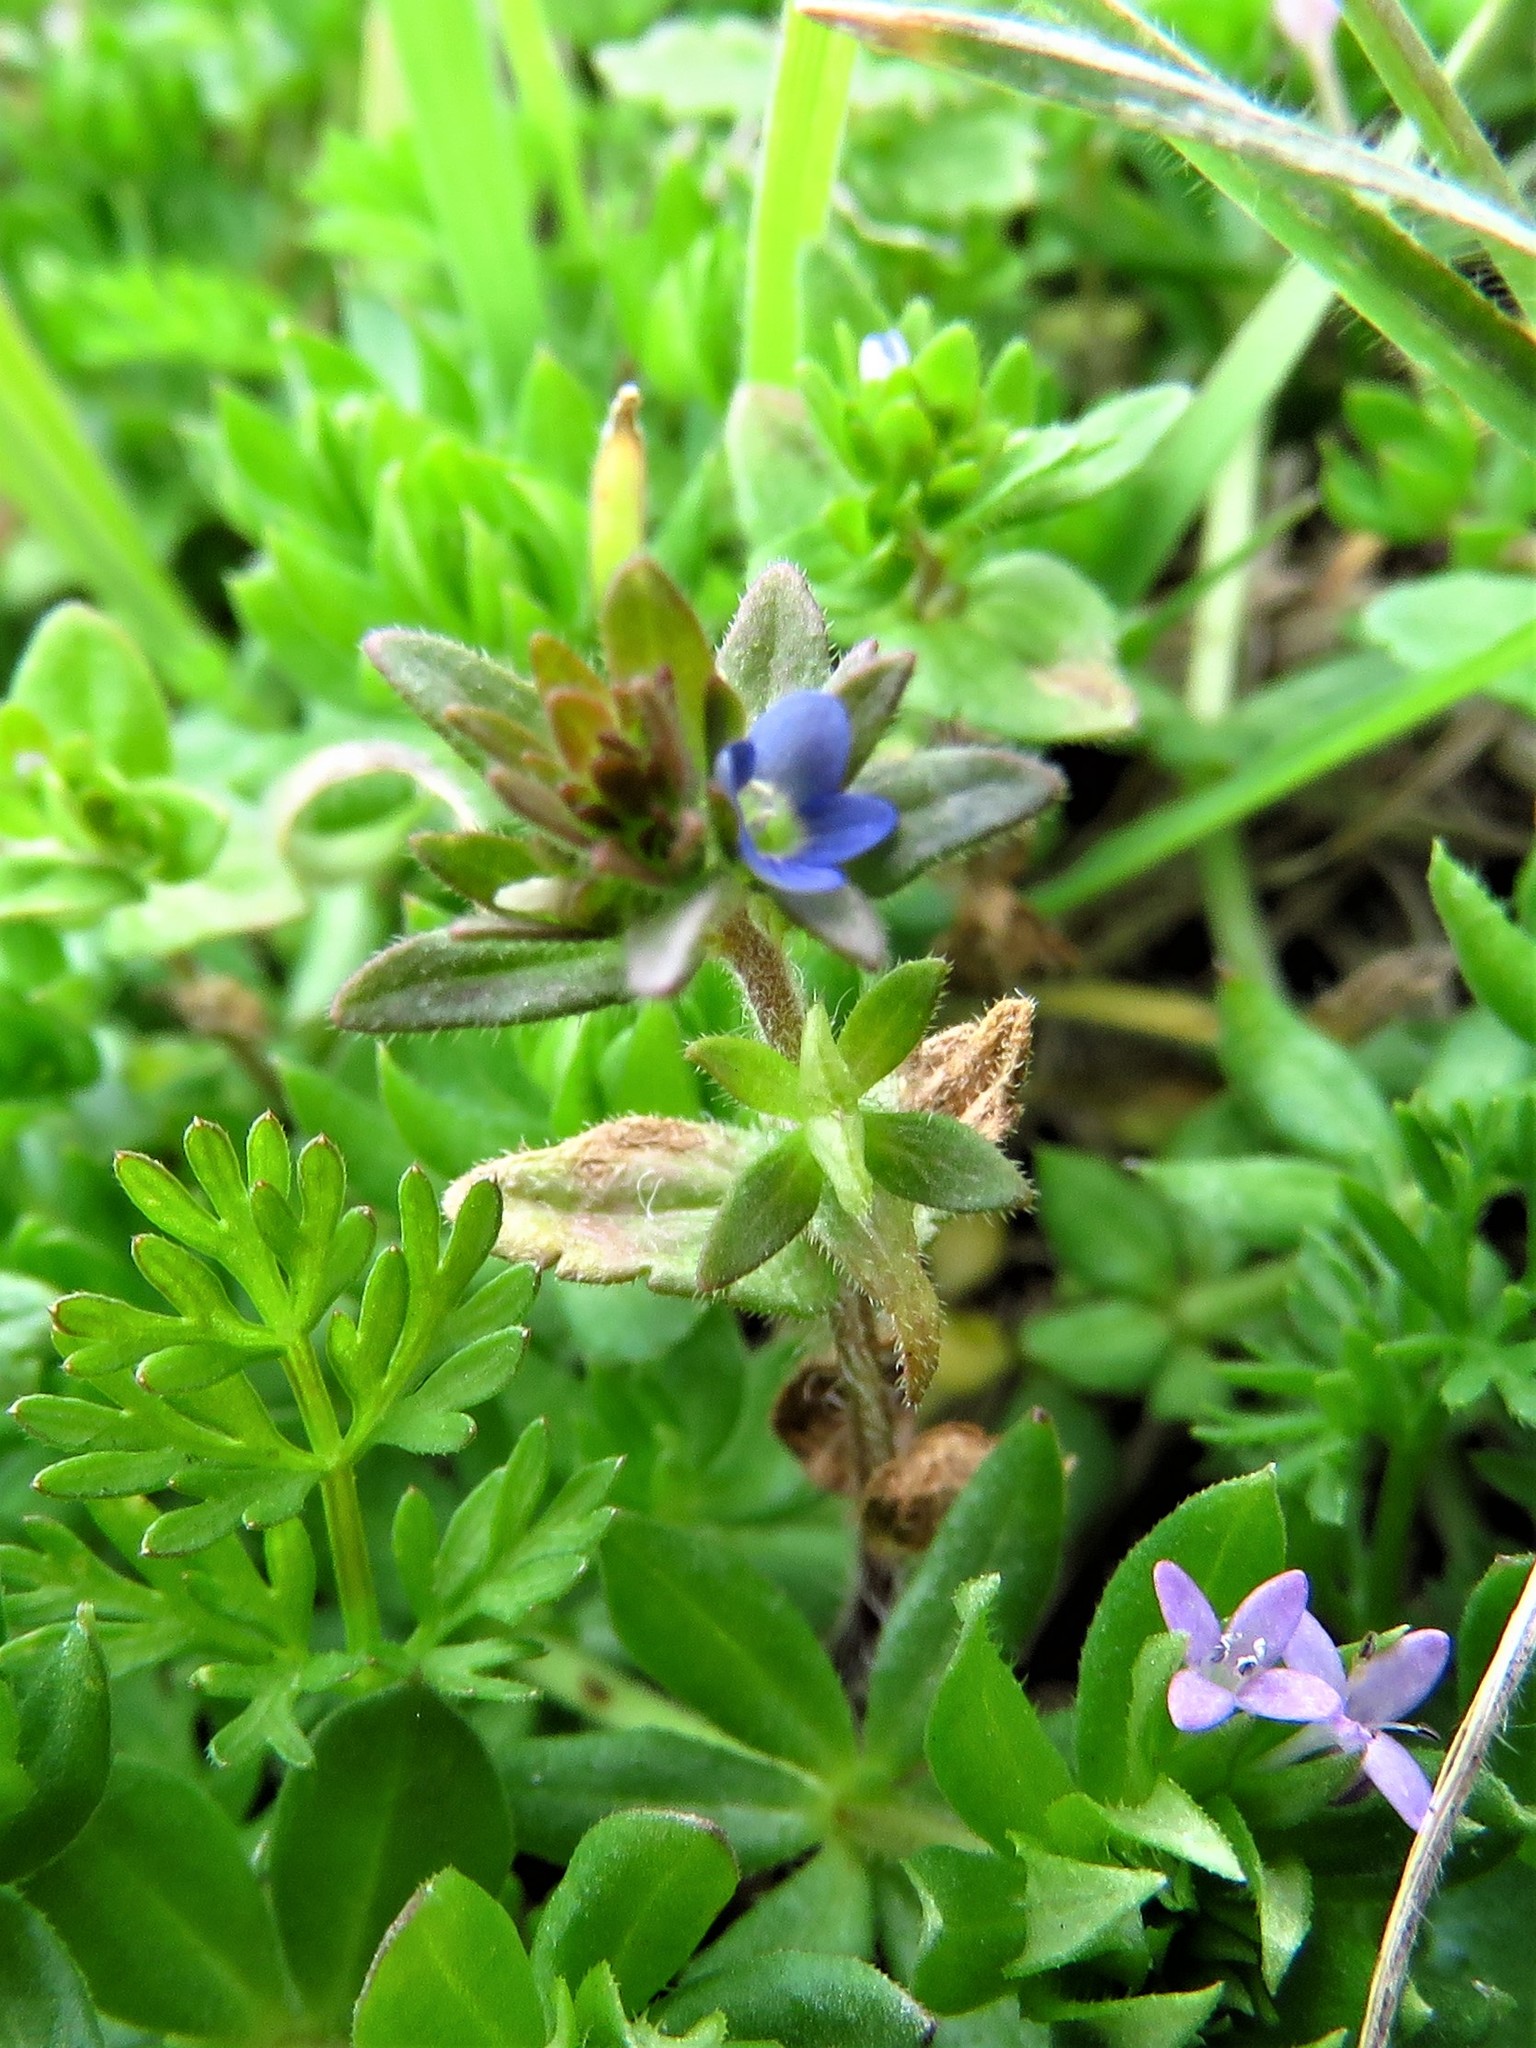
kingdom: Plantae
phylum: Tracheophyta
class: Magnoliopsida
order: Lamiales
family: Plantaginaceae
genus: Veronica
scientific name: Veronica arvensis
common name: Corn speedwell
